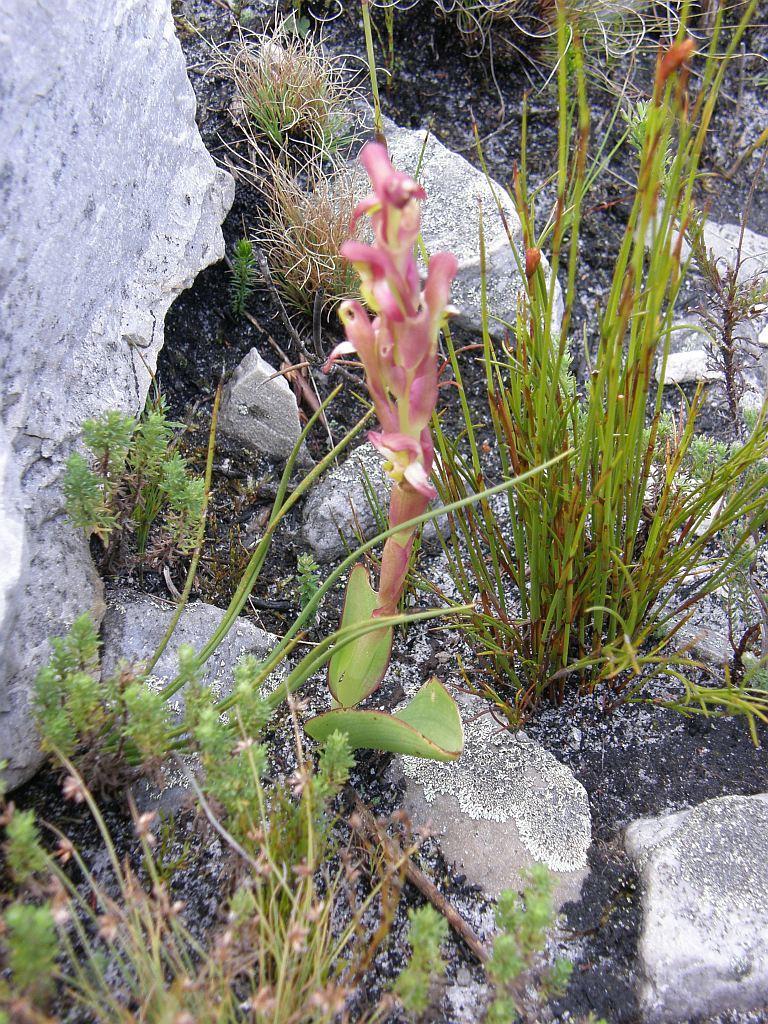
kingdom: Plantae
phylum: Tracheophyta
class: Liliopsida
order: Asparagales
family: Orchidaceae
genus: Disa
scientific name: Disa bolusiana
